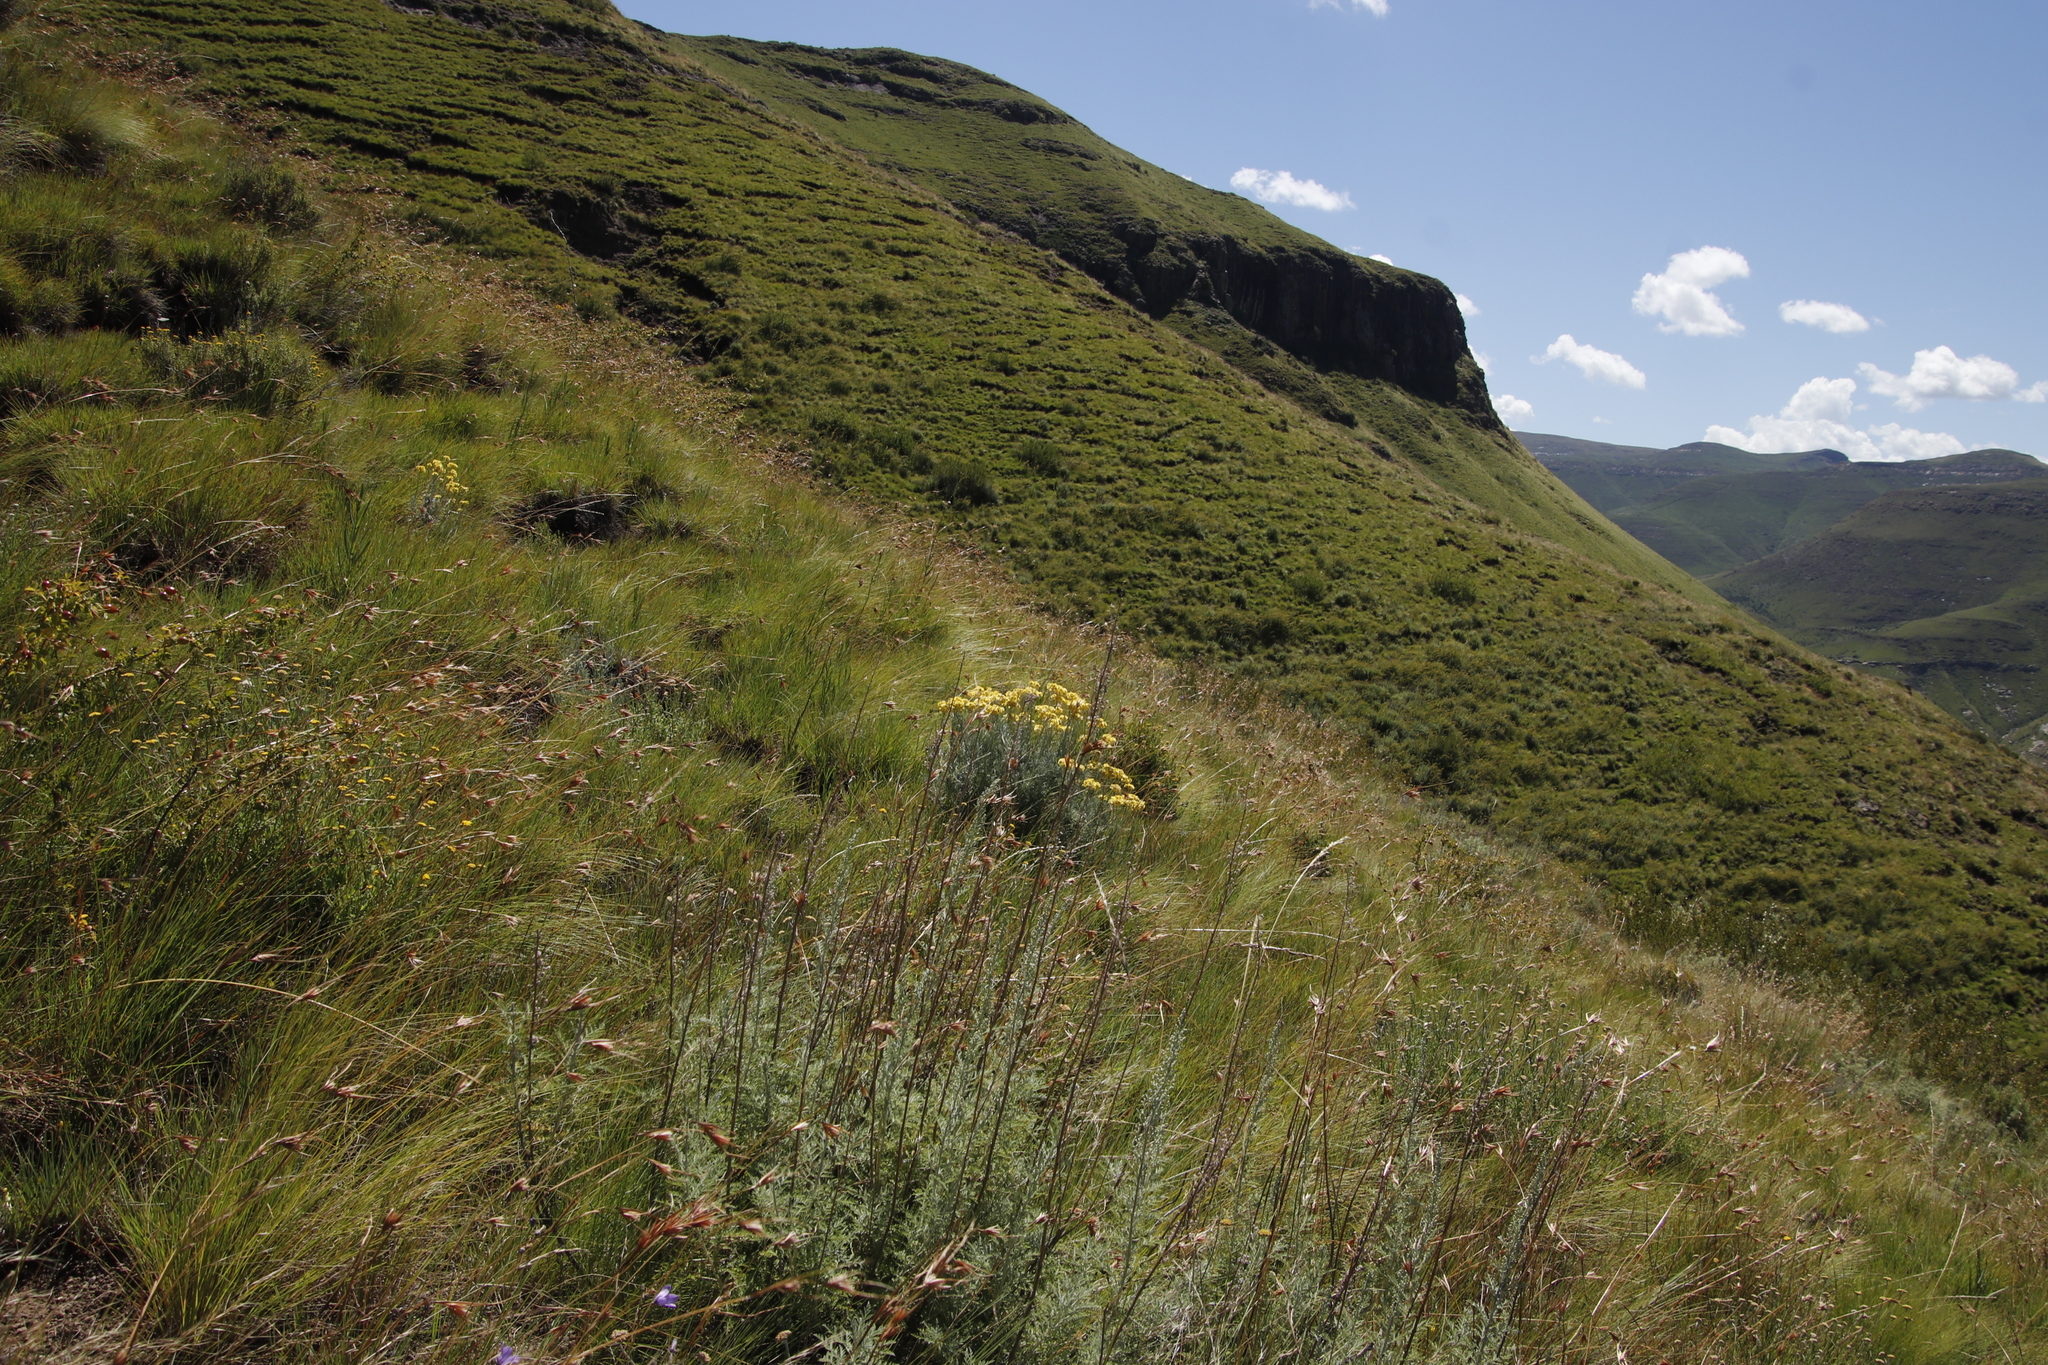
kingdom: Plantae
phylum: Tracheophyta
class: Magnoliopsida
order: Asterales
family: Asteraceae
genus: Artemisia
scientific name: Artemisia afra
